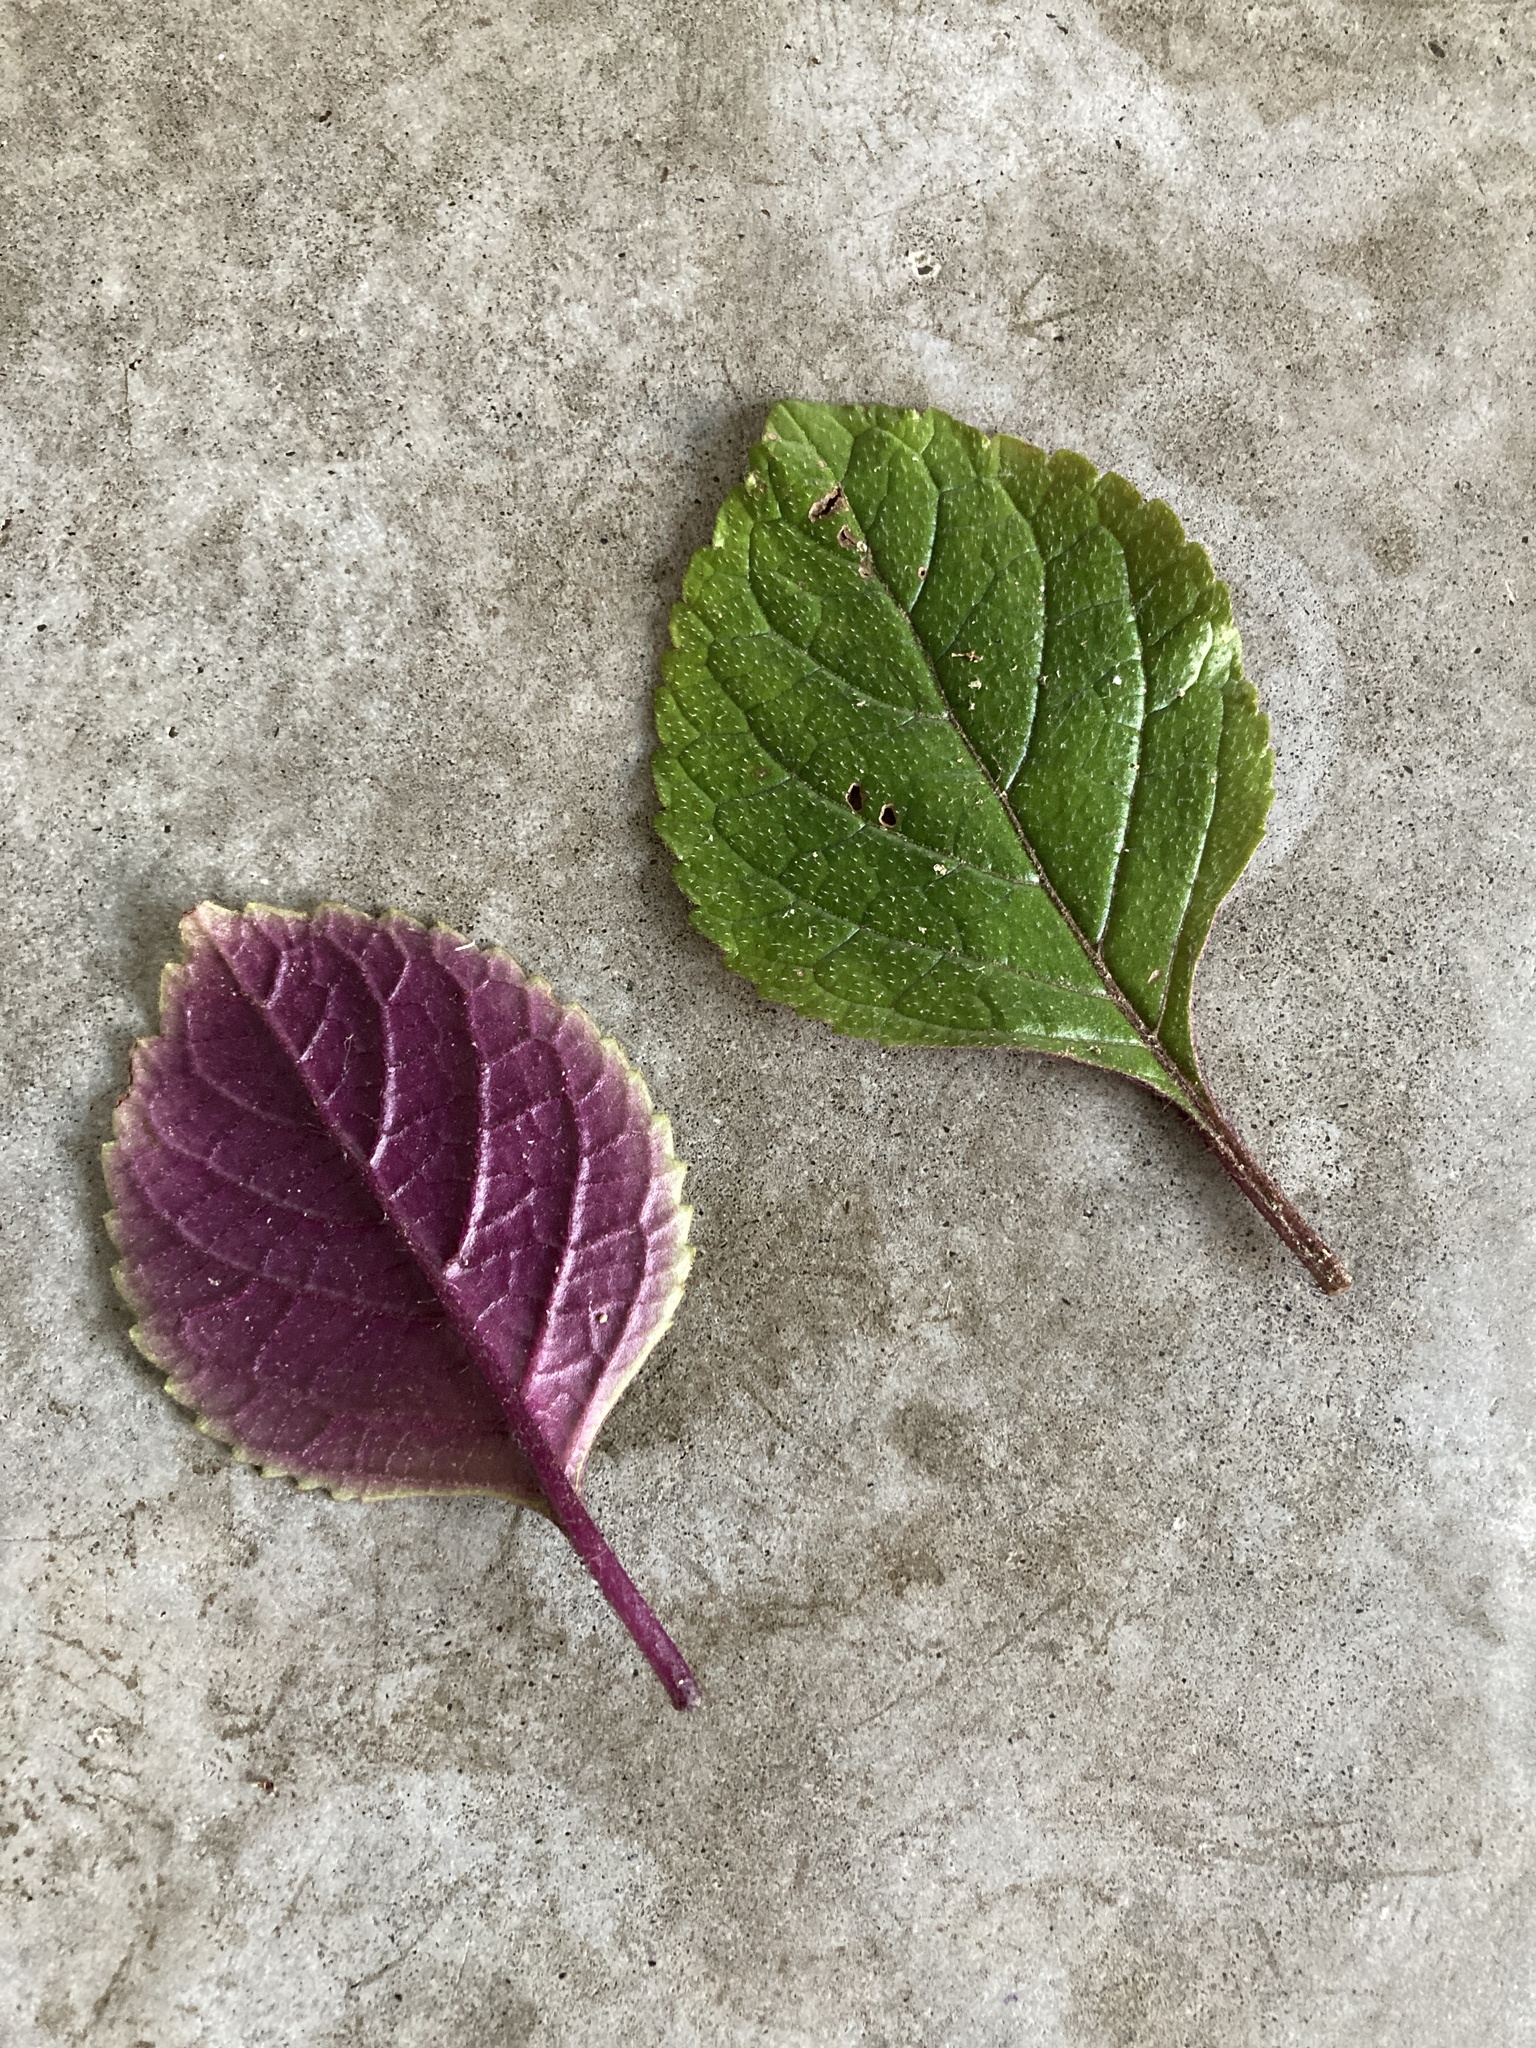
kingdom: Plantae
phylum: Tracheophyta
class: Magnoliopsida
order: Lamiales
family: Lamiaceae
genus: Plectranthus
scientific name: Plectranthus ciliatus
